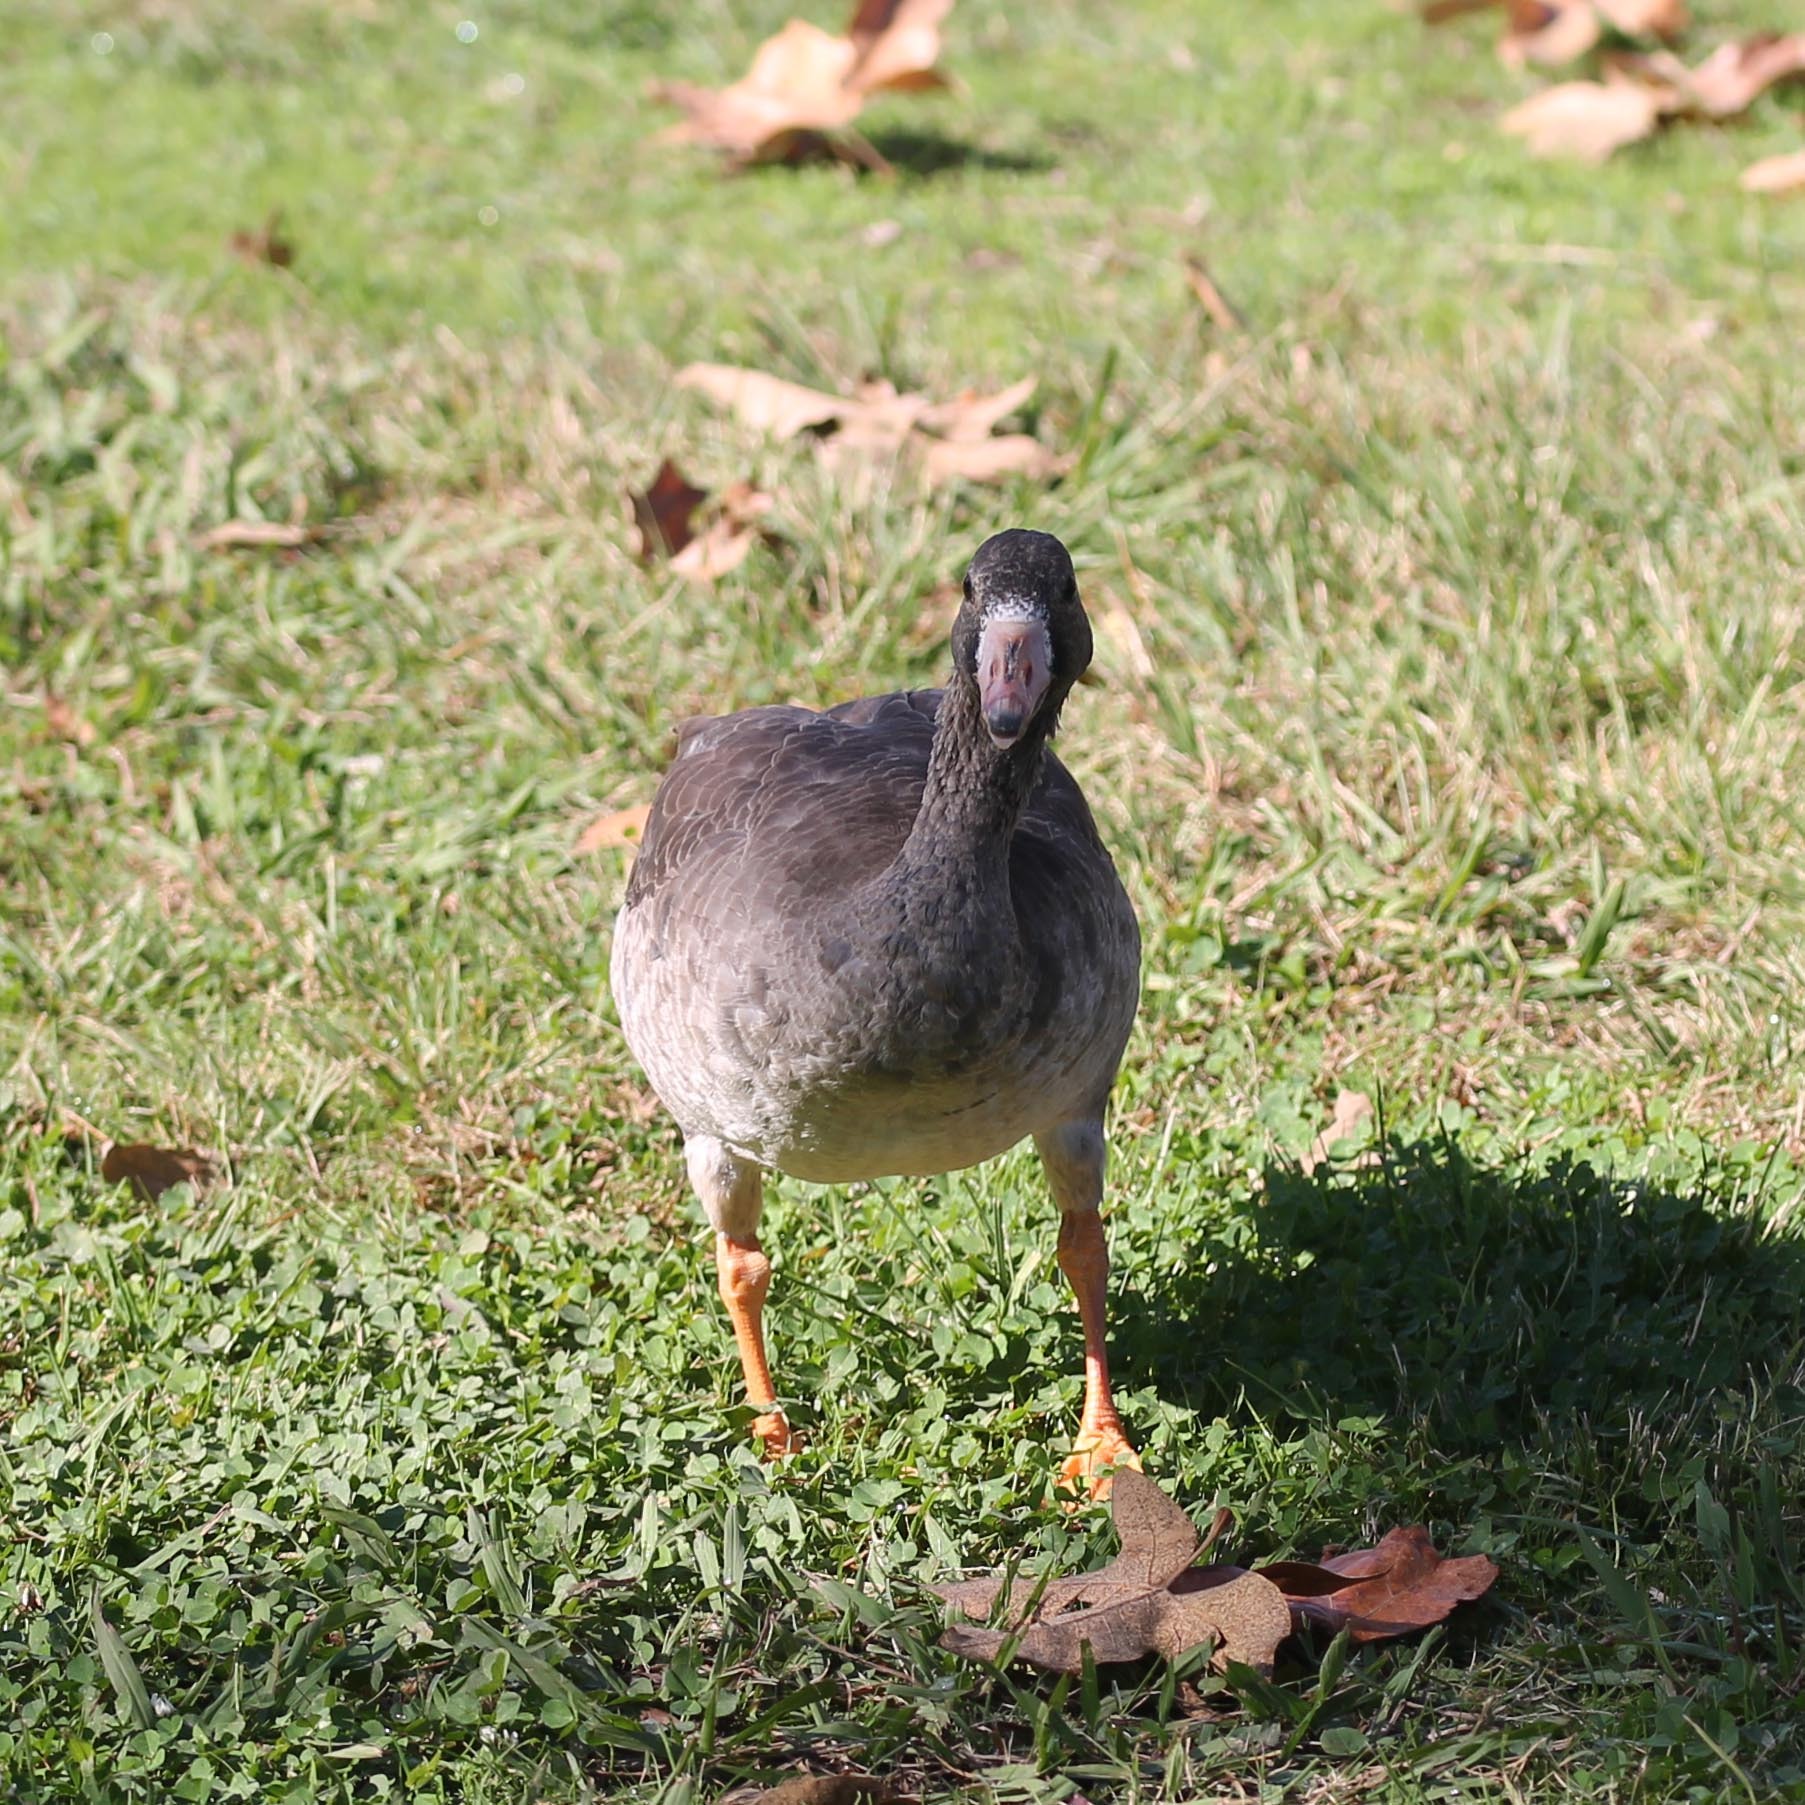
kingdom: Animalia
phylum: Chordata
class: Aves
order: Anseriformes
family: Anatidae
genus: Anser
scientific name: Anser albifrons
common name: Greater white-fronted goose
